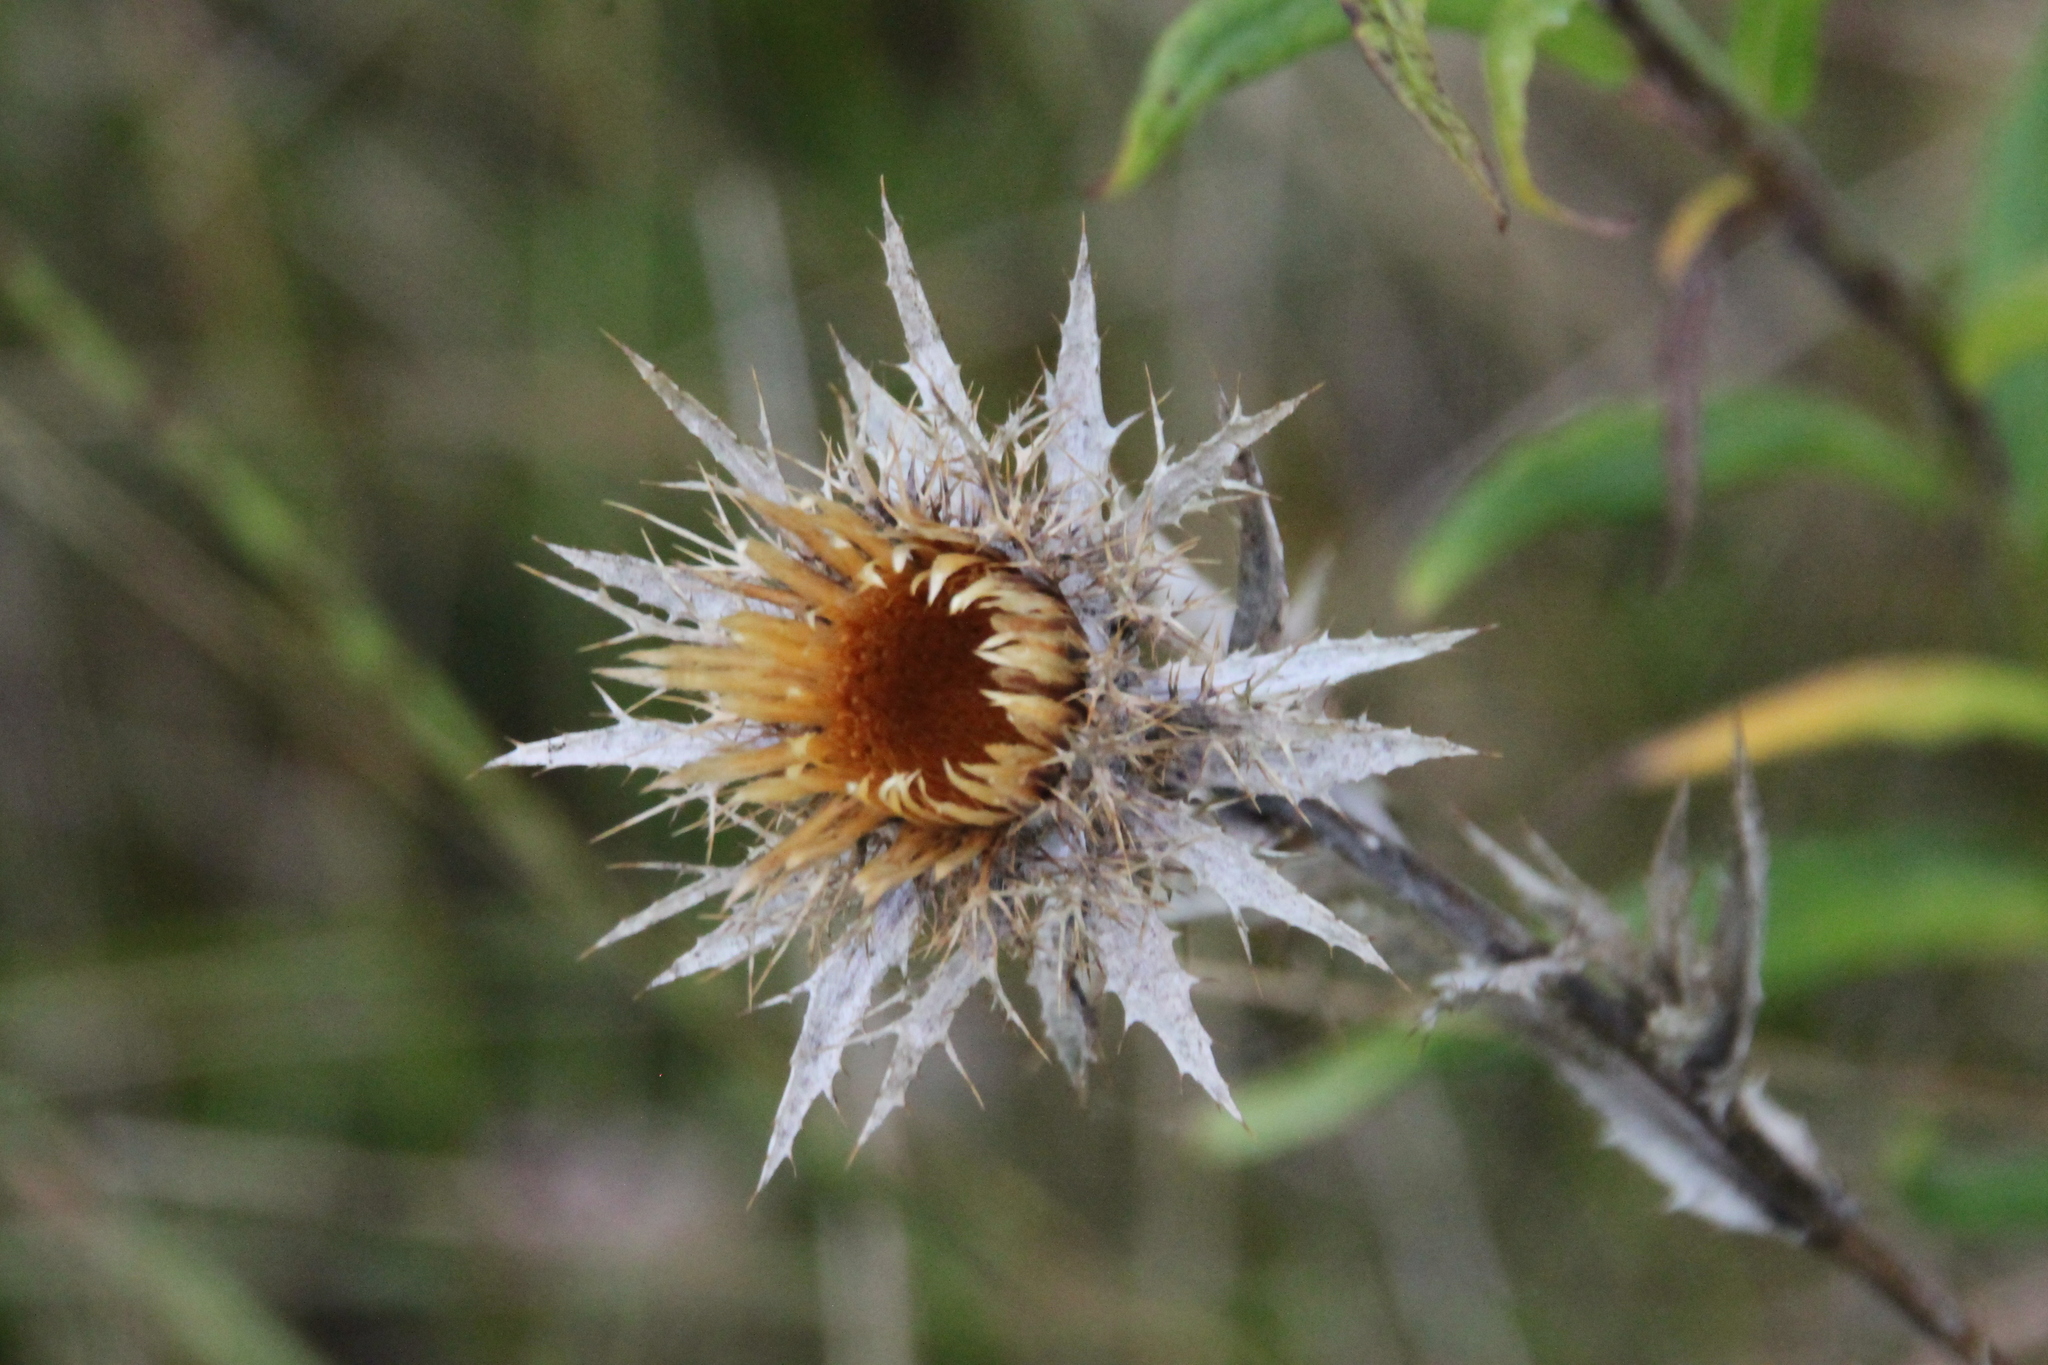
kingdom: Plantae
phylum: Tracheophyta
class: Magnoliopsida
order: Asterales
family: Asteraceae
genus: Carlina
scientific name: Carlina biebersteinii
